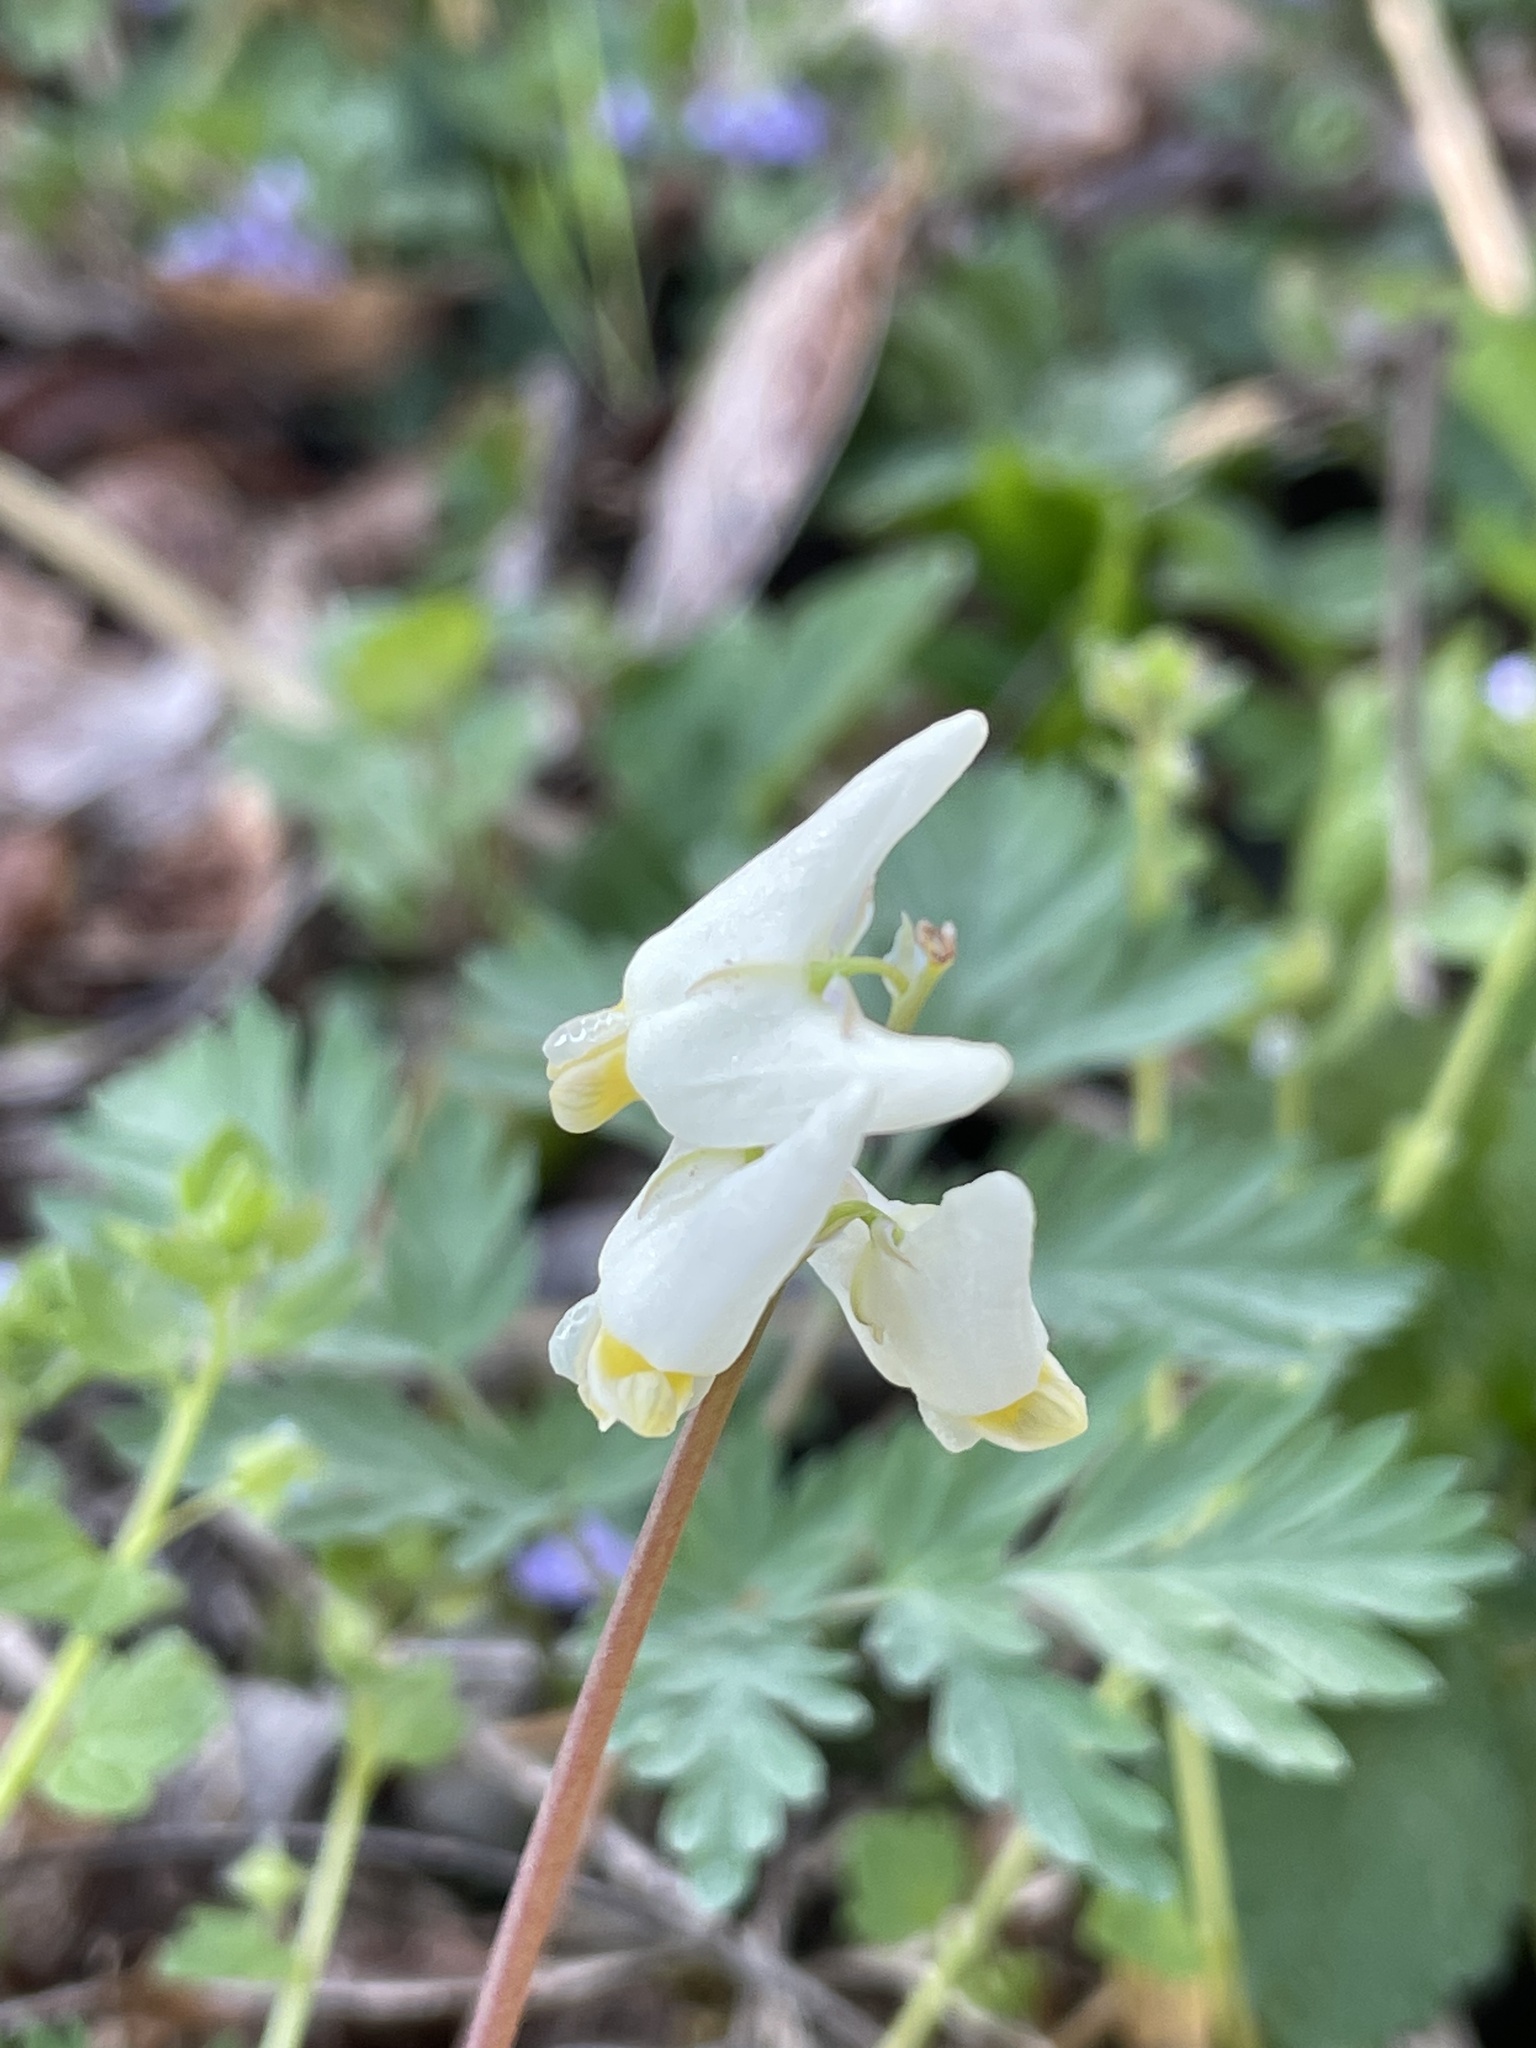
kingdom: Plantae
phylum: Tracheophyta
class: Magnoliopsida
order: Ranunculales
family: Papaveraceae
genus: Dicentra
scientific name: Dicentra cucullaria
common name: Dutchman's breeches
